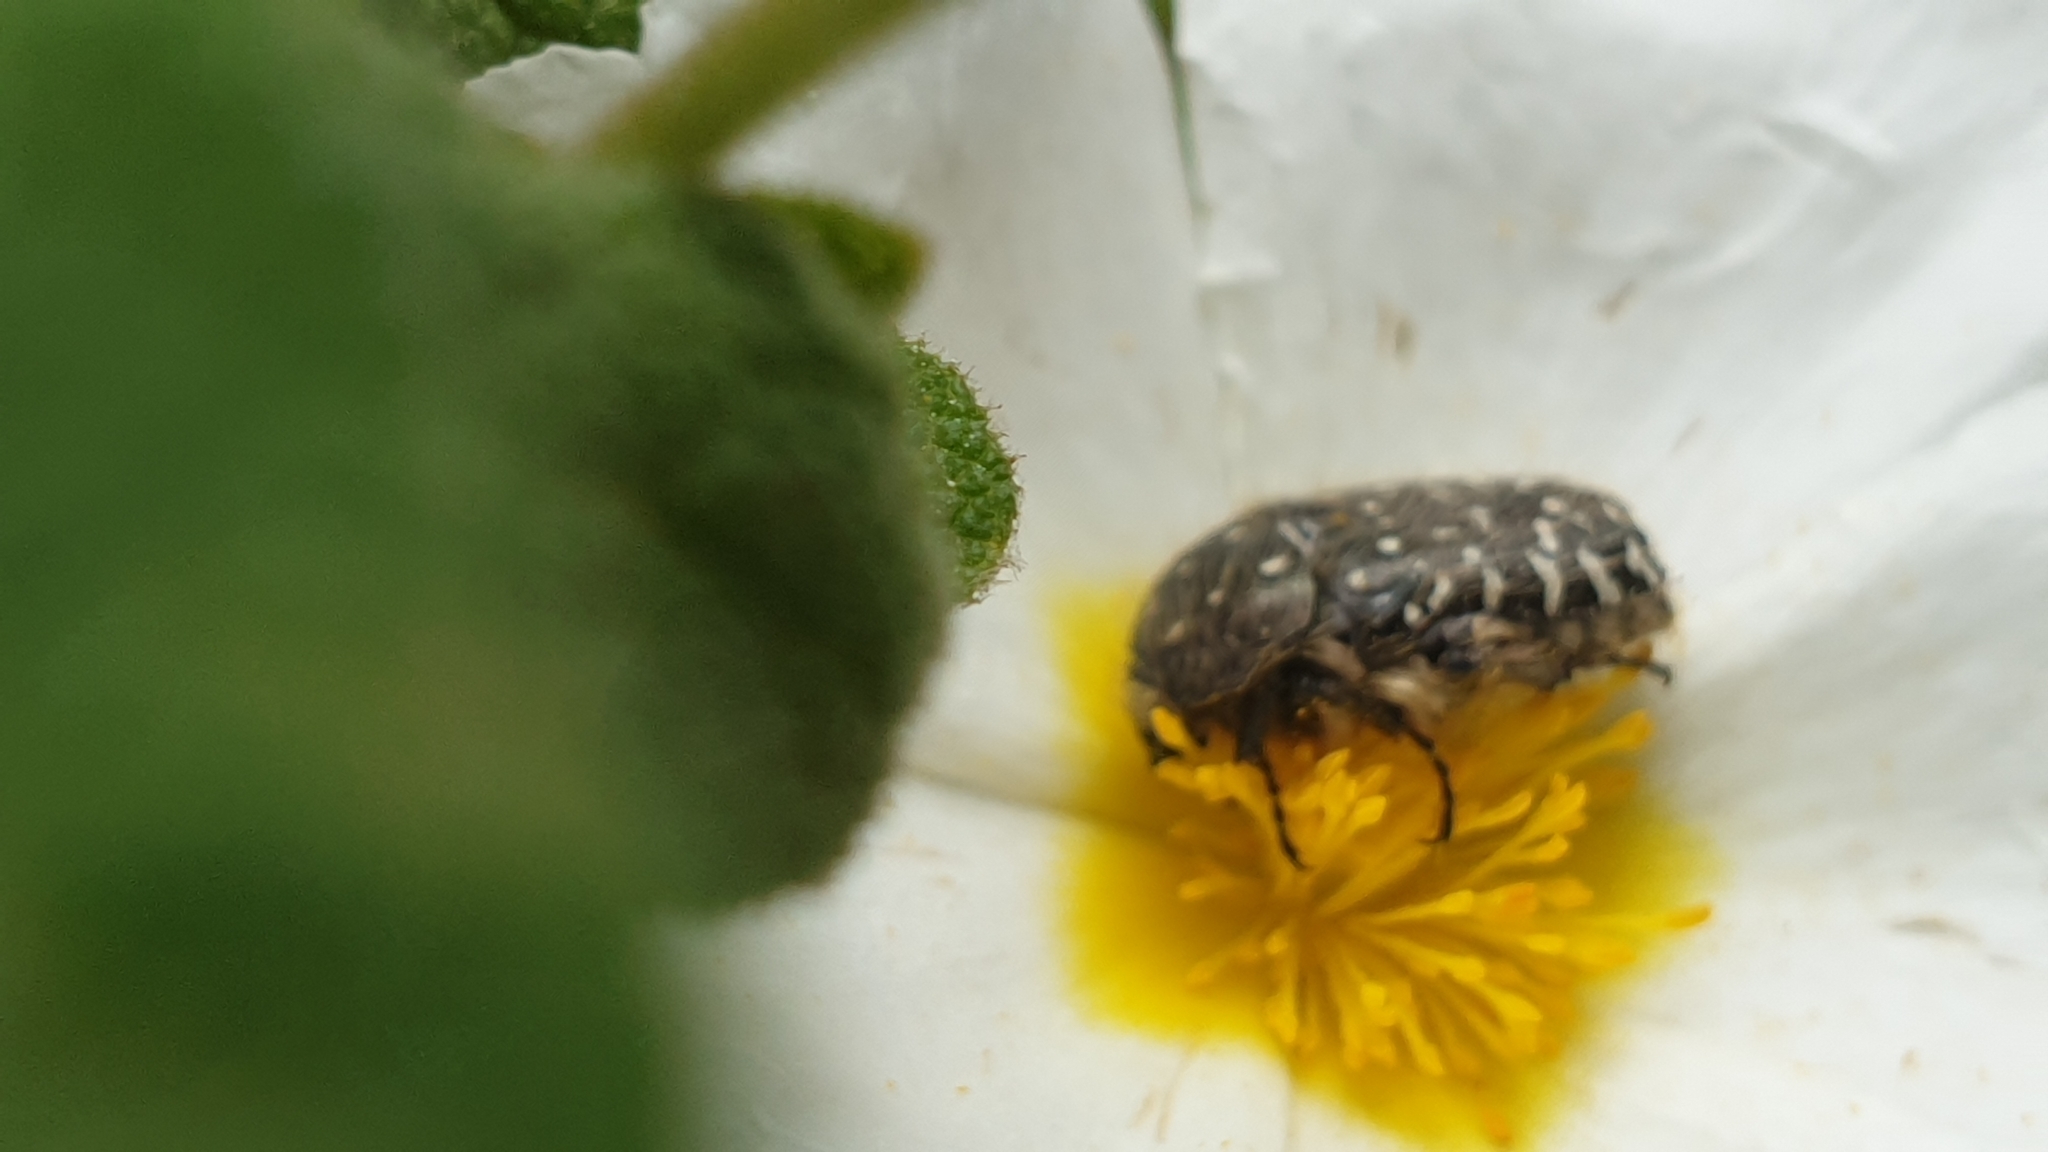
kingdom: Animalia
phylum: Arthropoda
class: Insecta
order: Coleoptera
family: Scarabaeidae
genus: Oxythyrea
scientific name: Oxythyrea funesta
